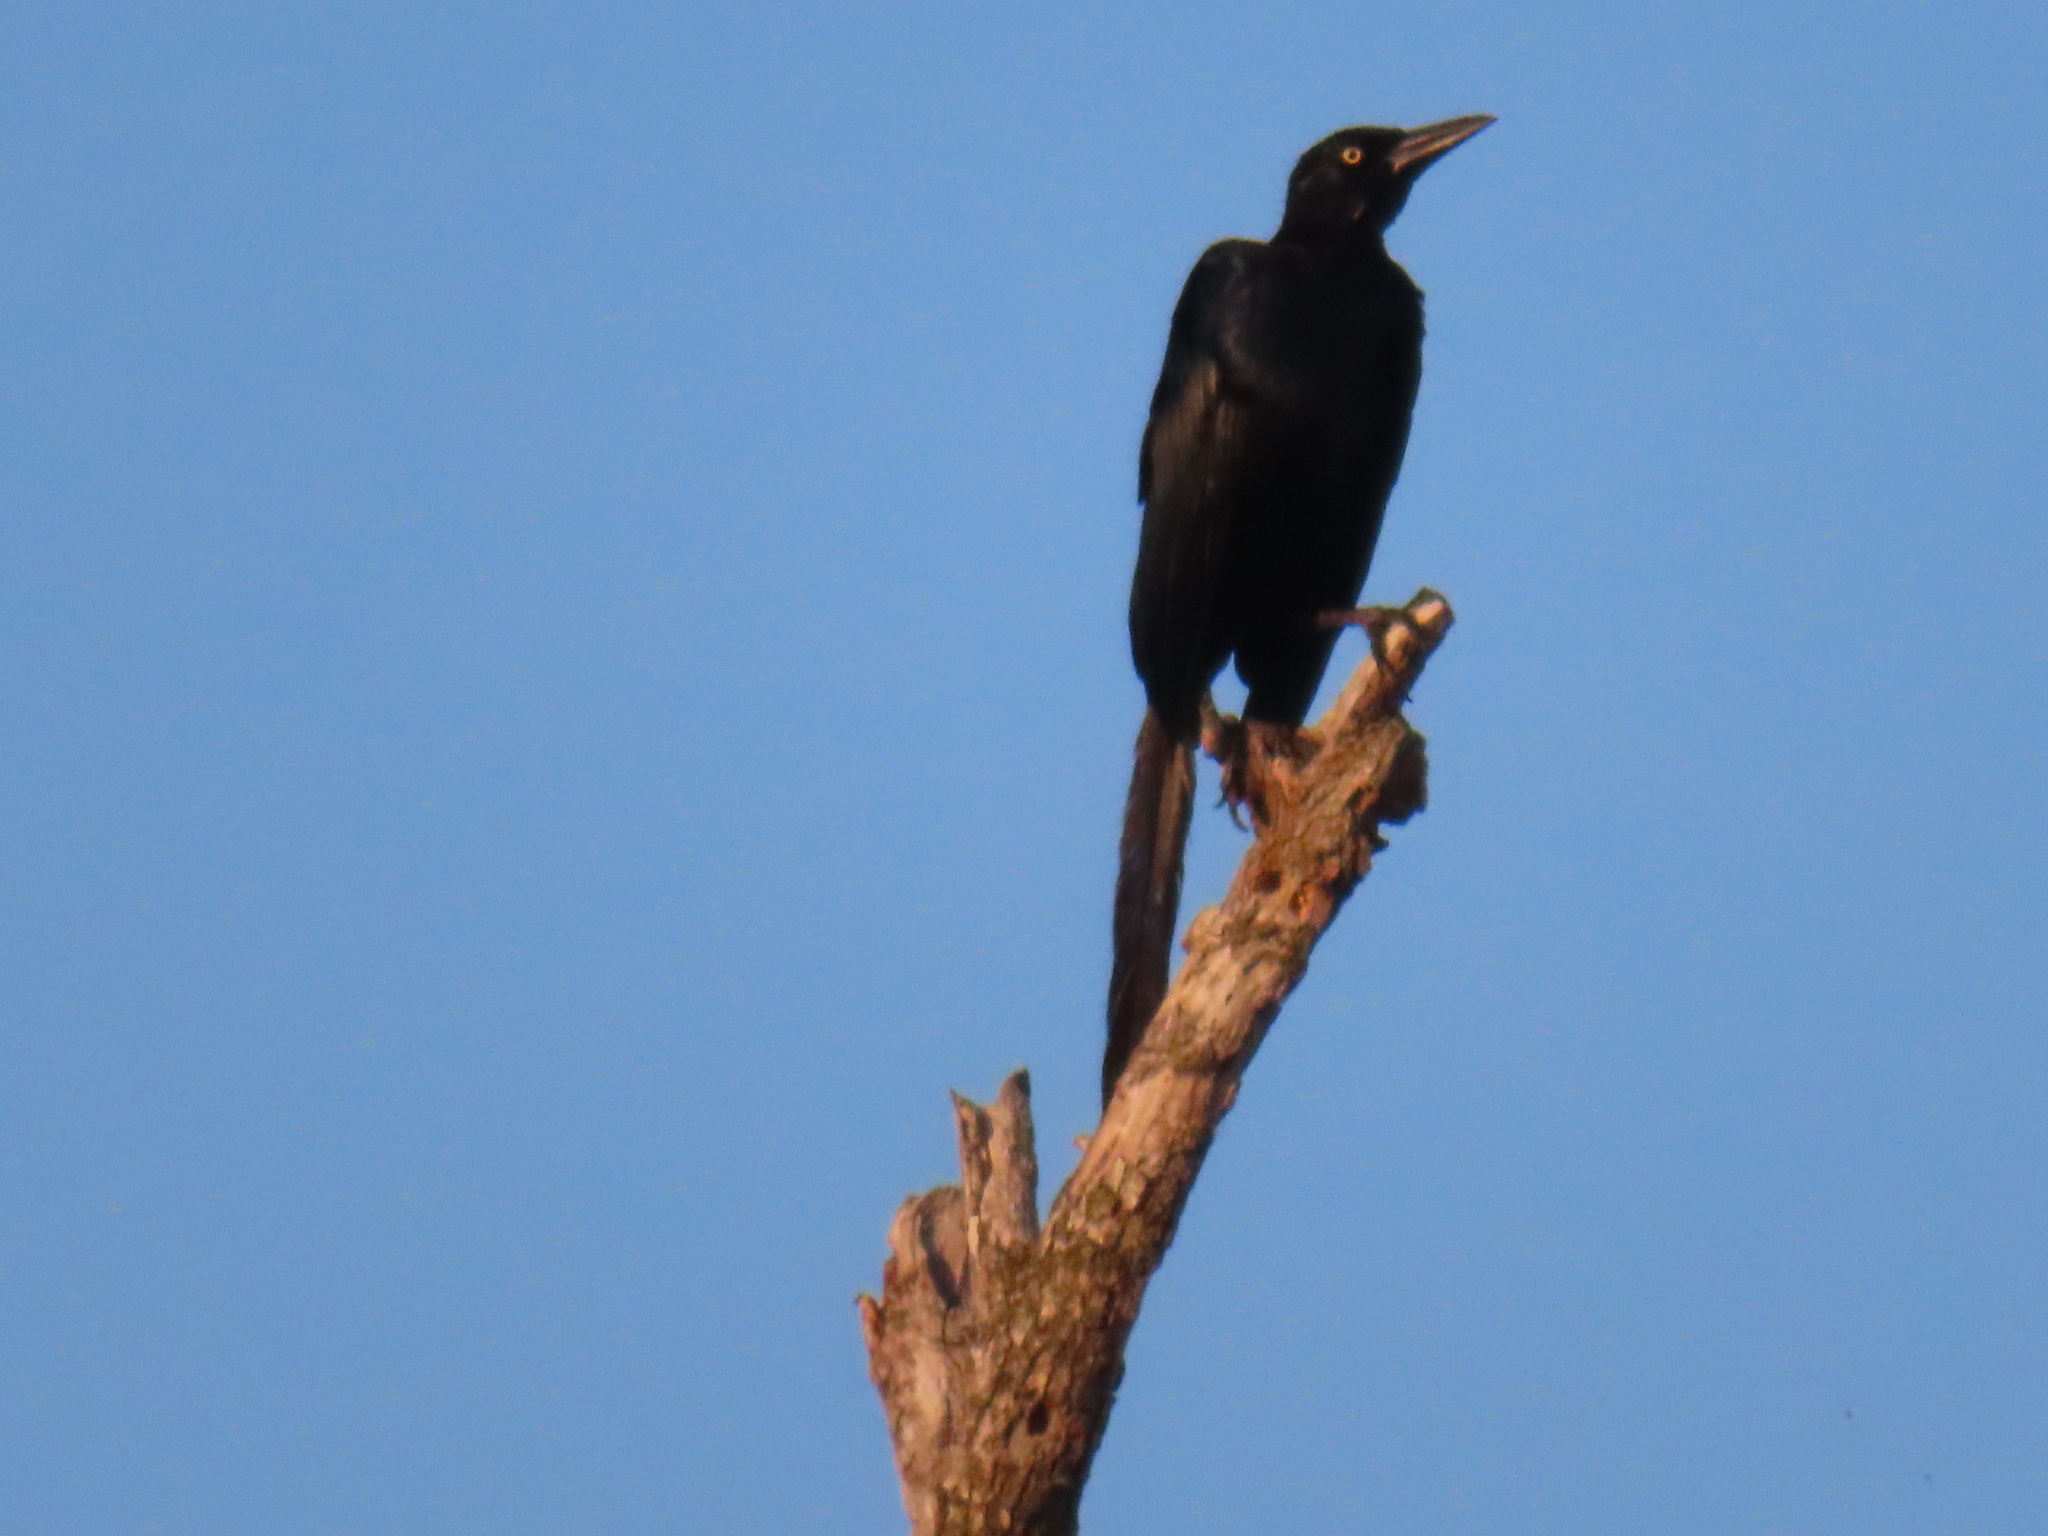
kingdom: Animalia
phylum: Chordata
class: Aves
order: Passeriformes
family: Icteridae
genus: Quiscalus
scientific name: Quiscalus mexicanus
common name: Great-tailed grackle
